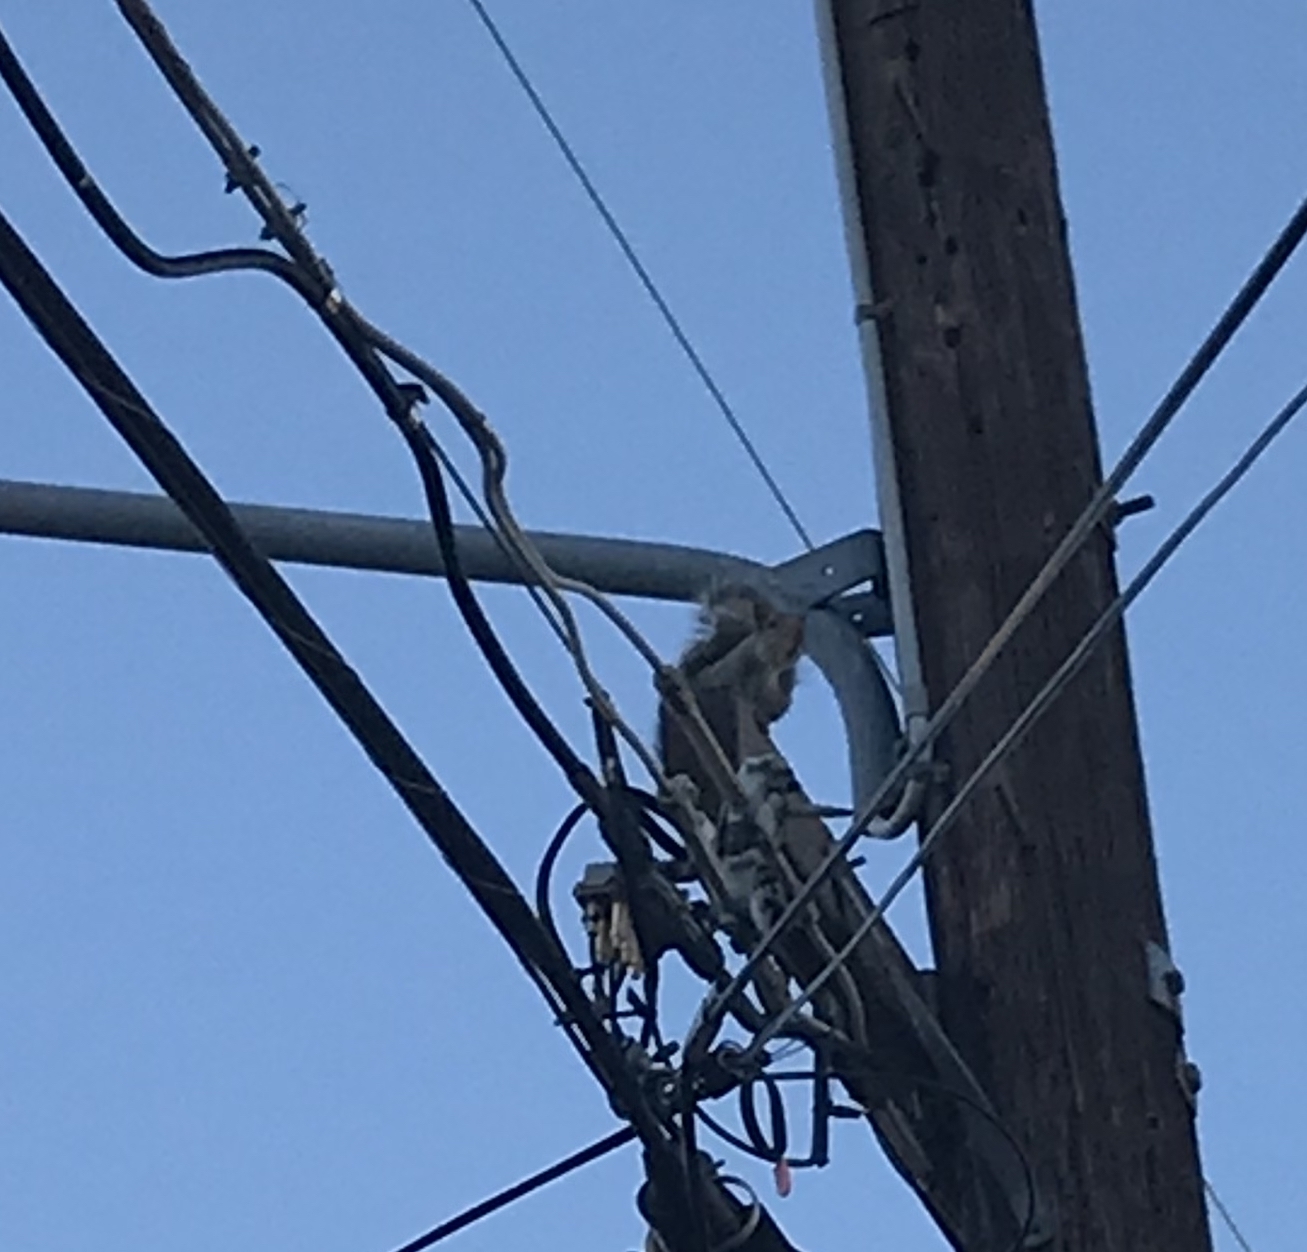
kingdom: Animalia
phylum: Chordata
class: Mammalia
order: Rodentia
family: Sciuridae
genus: Sciurus
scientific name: Sciurus carolinensis
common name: Eastern gray squirrel
